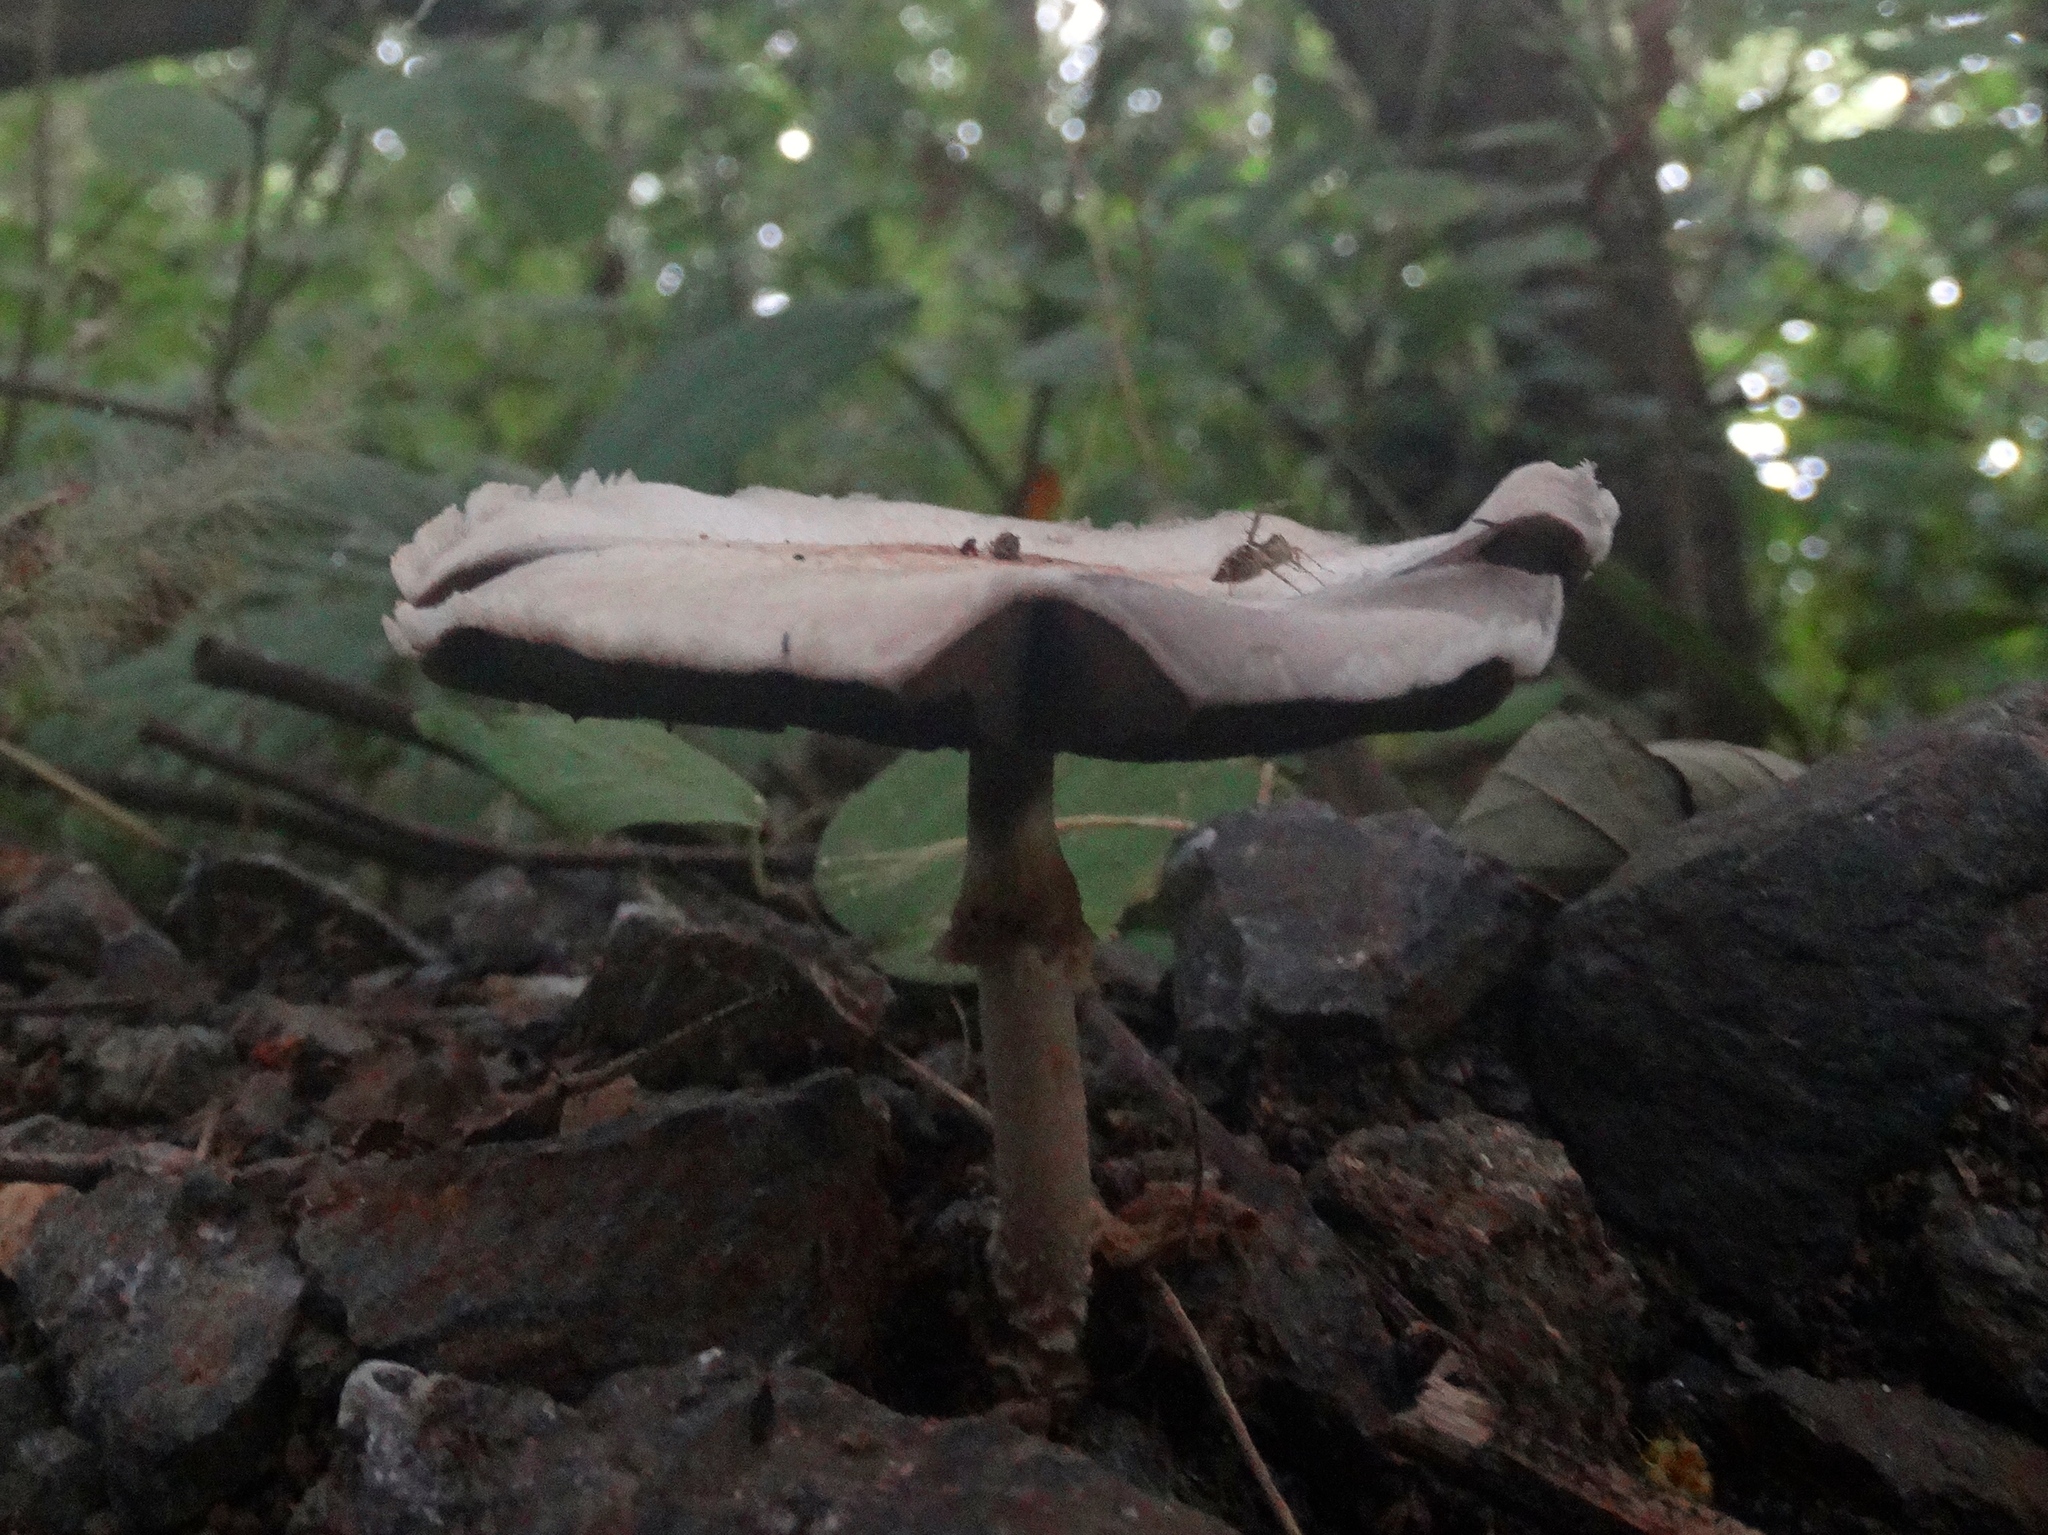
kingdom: Fungi
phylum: Basidiomycota
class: Agaricomycetes
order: Agaricales
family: Agaricaceae
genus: Agaricus
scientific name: Agaricus
